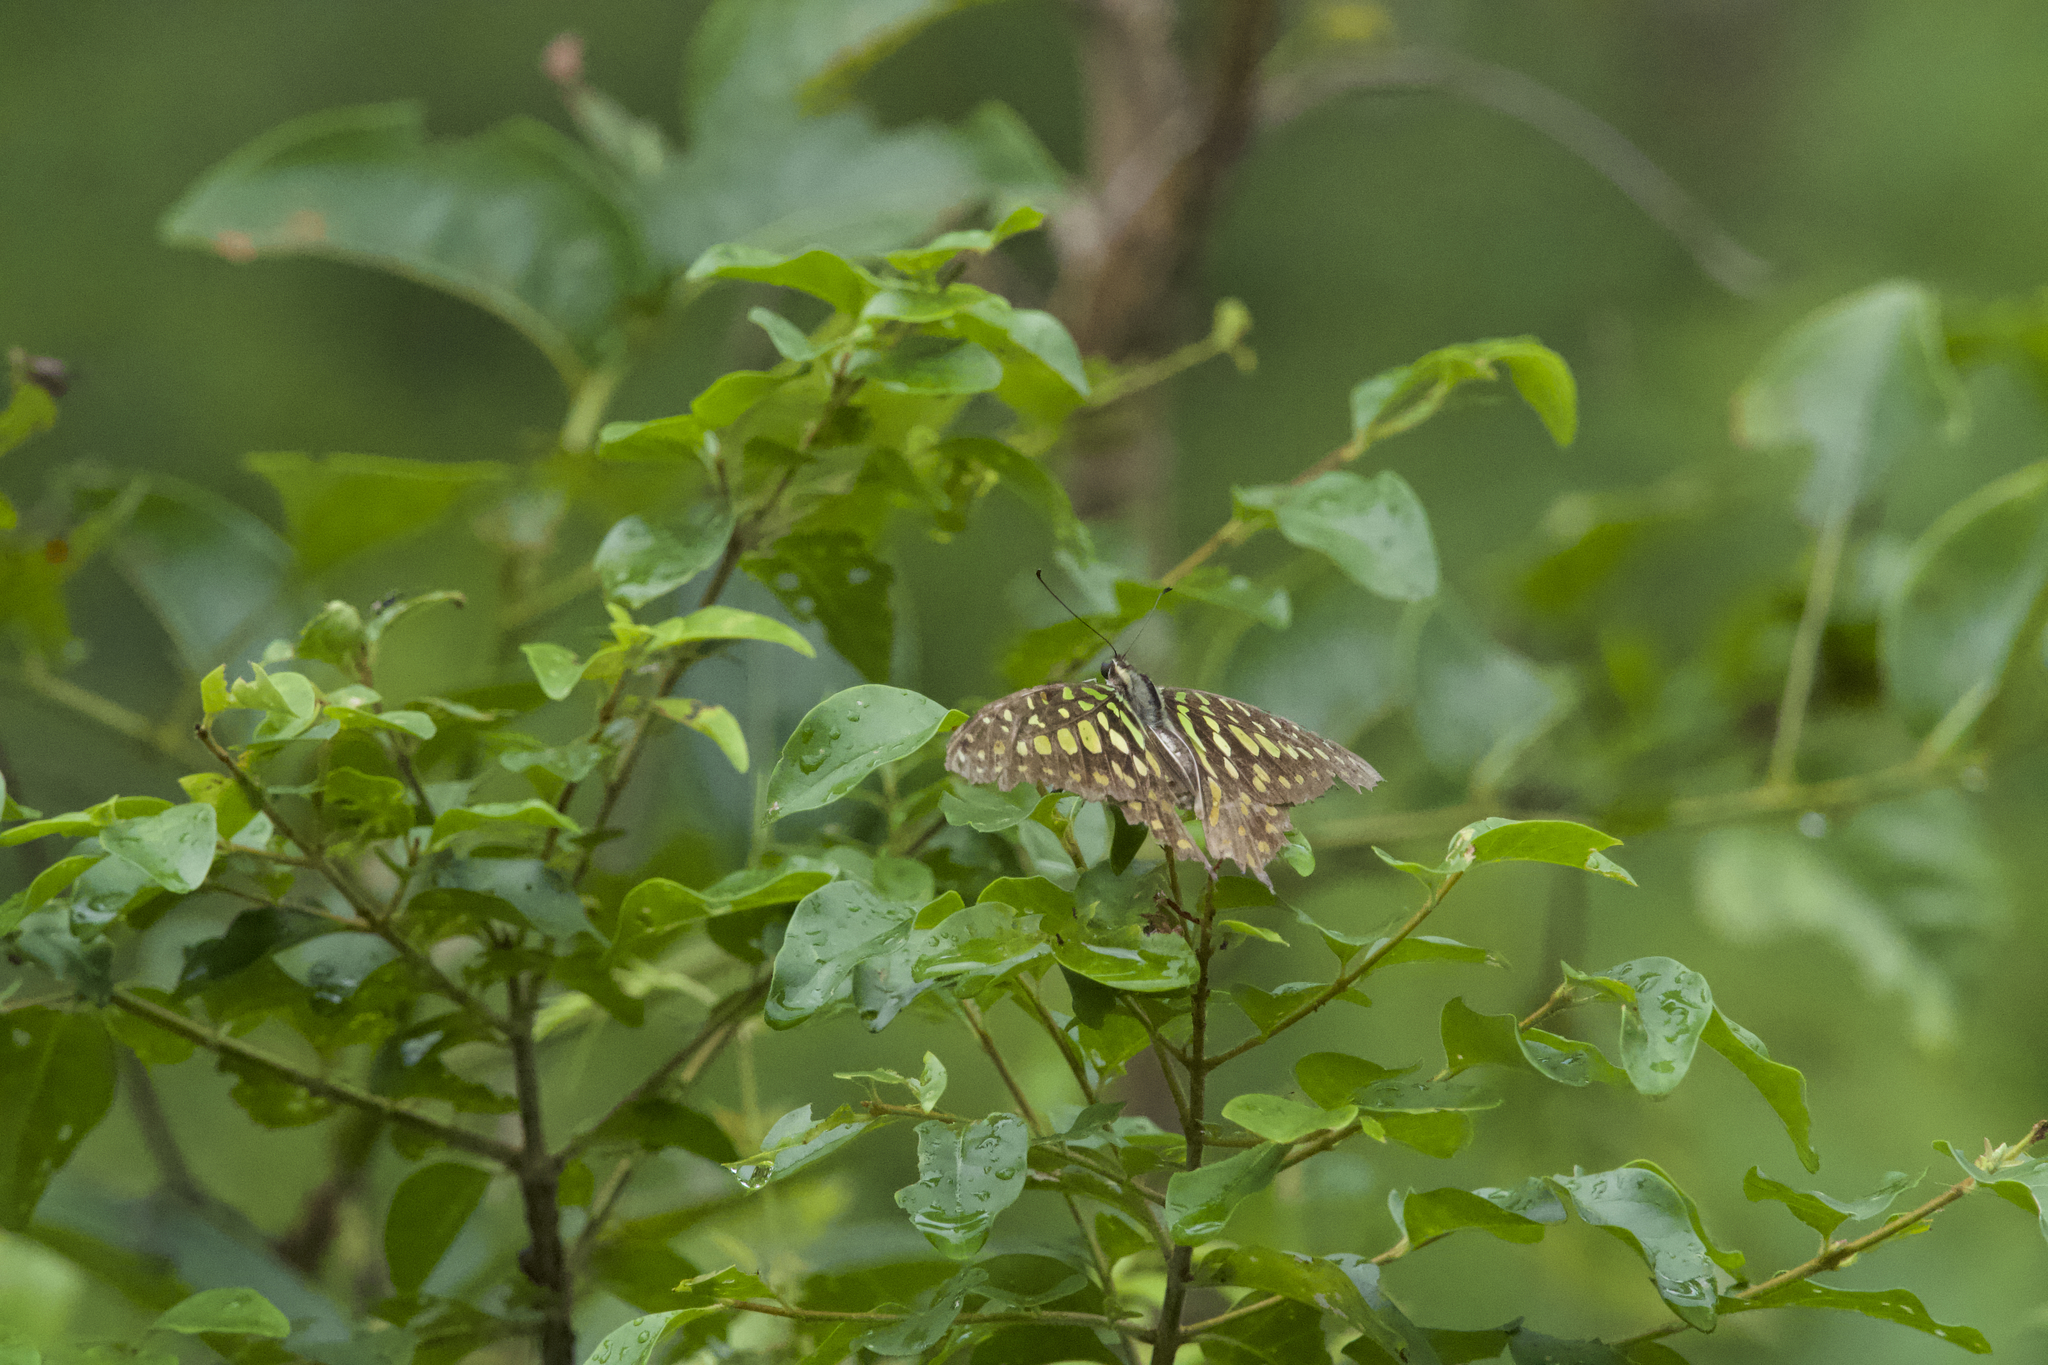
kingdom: Animalia
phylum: Arthropoda
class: Insecta
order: Lepidoptera
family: Papilionidae
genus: Graphium
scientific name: Graphium agamemnon
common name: Tailed jay
